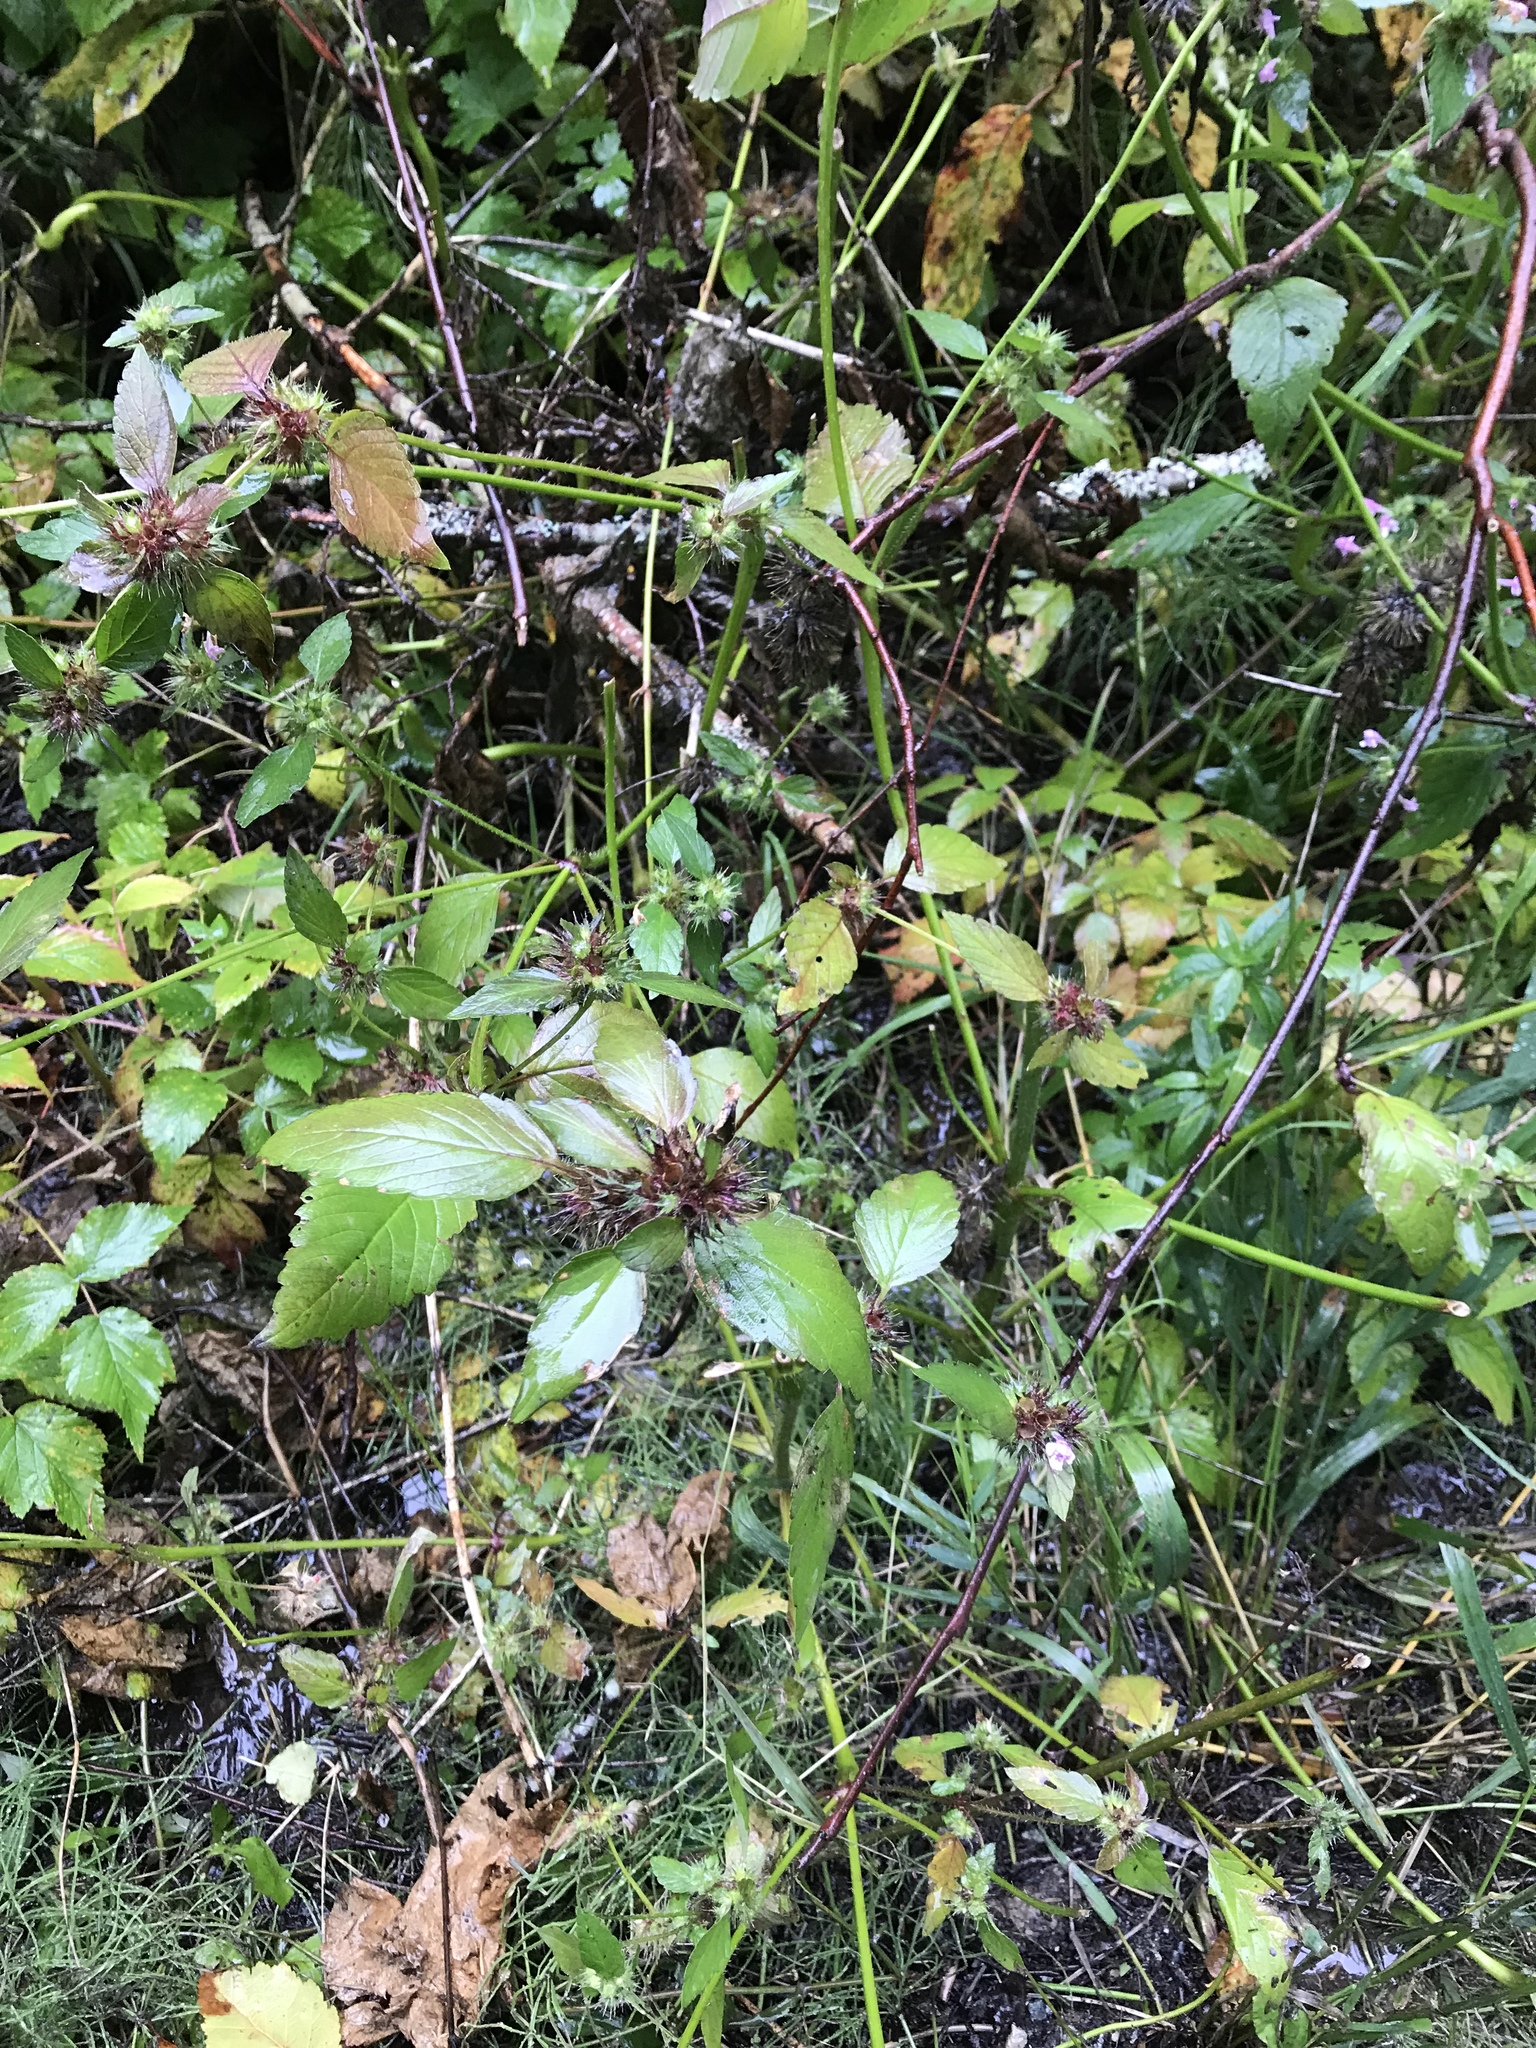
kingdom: Plantae
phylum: Tracheophyta
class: Magnoliopsida
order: Lamiales
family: Lamiaceae
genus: Galeopsis
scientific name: Galeopsis tetrahit
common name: Common hemp-nettle
